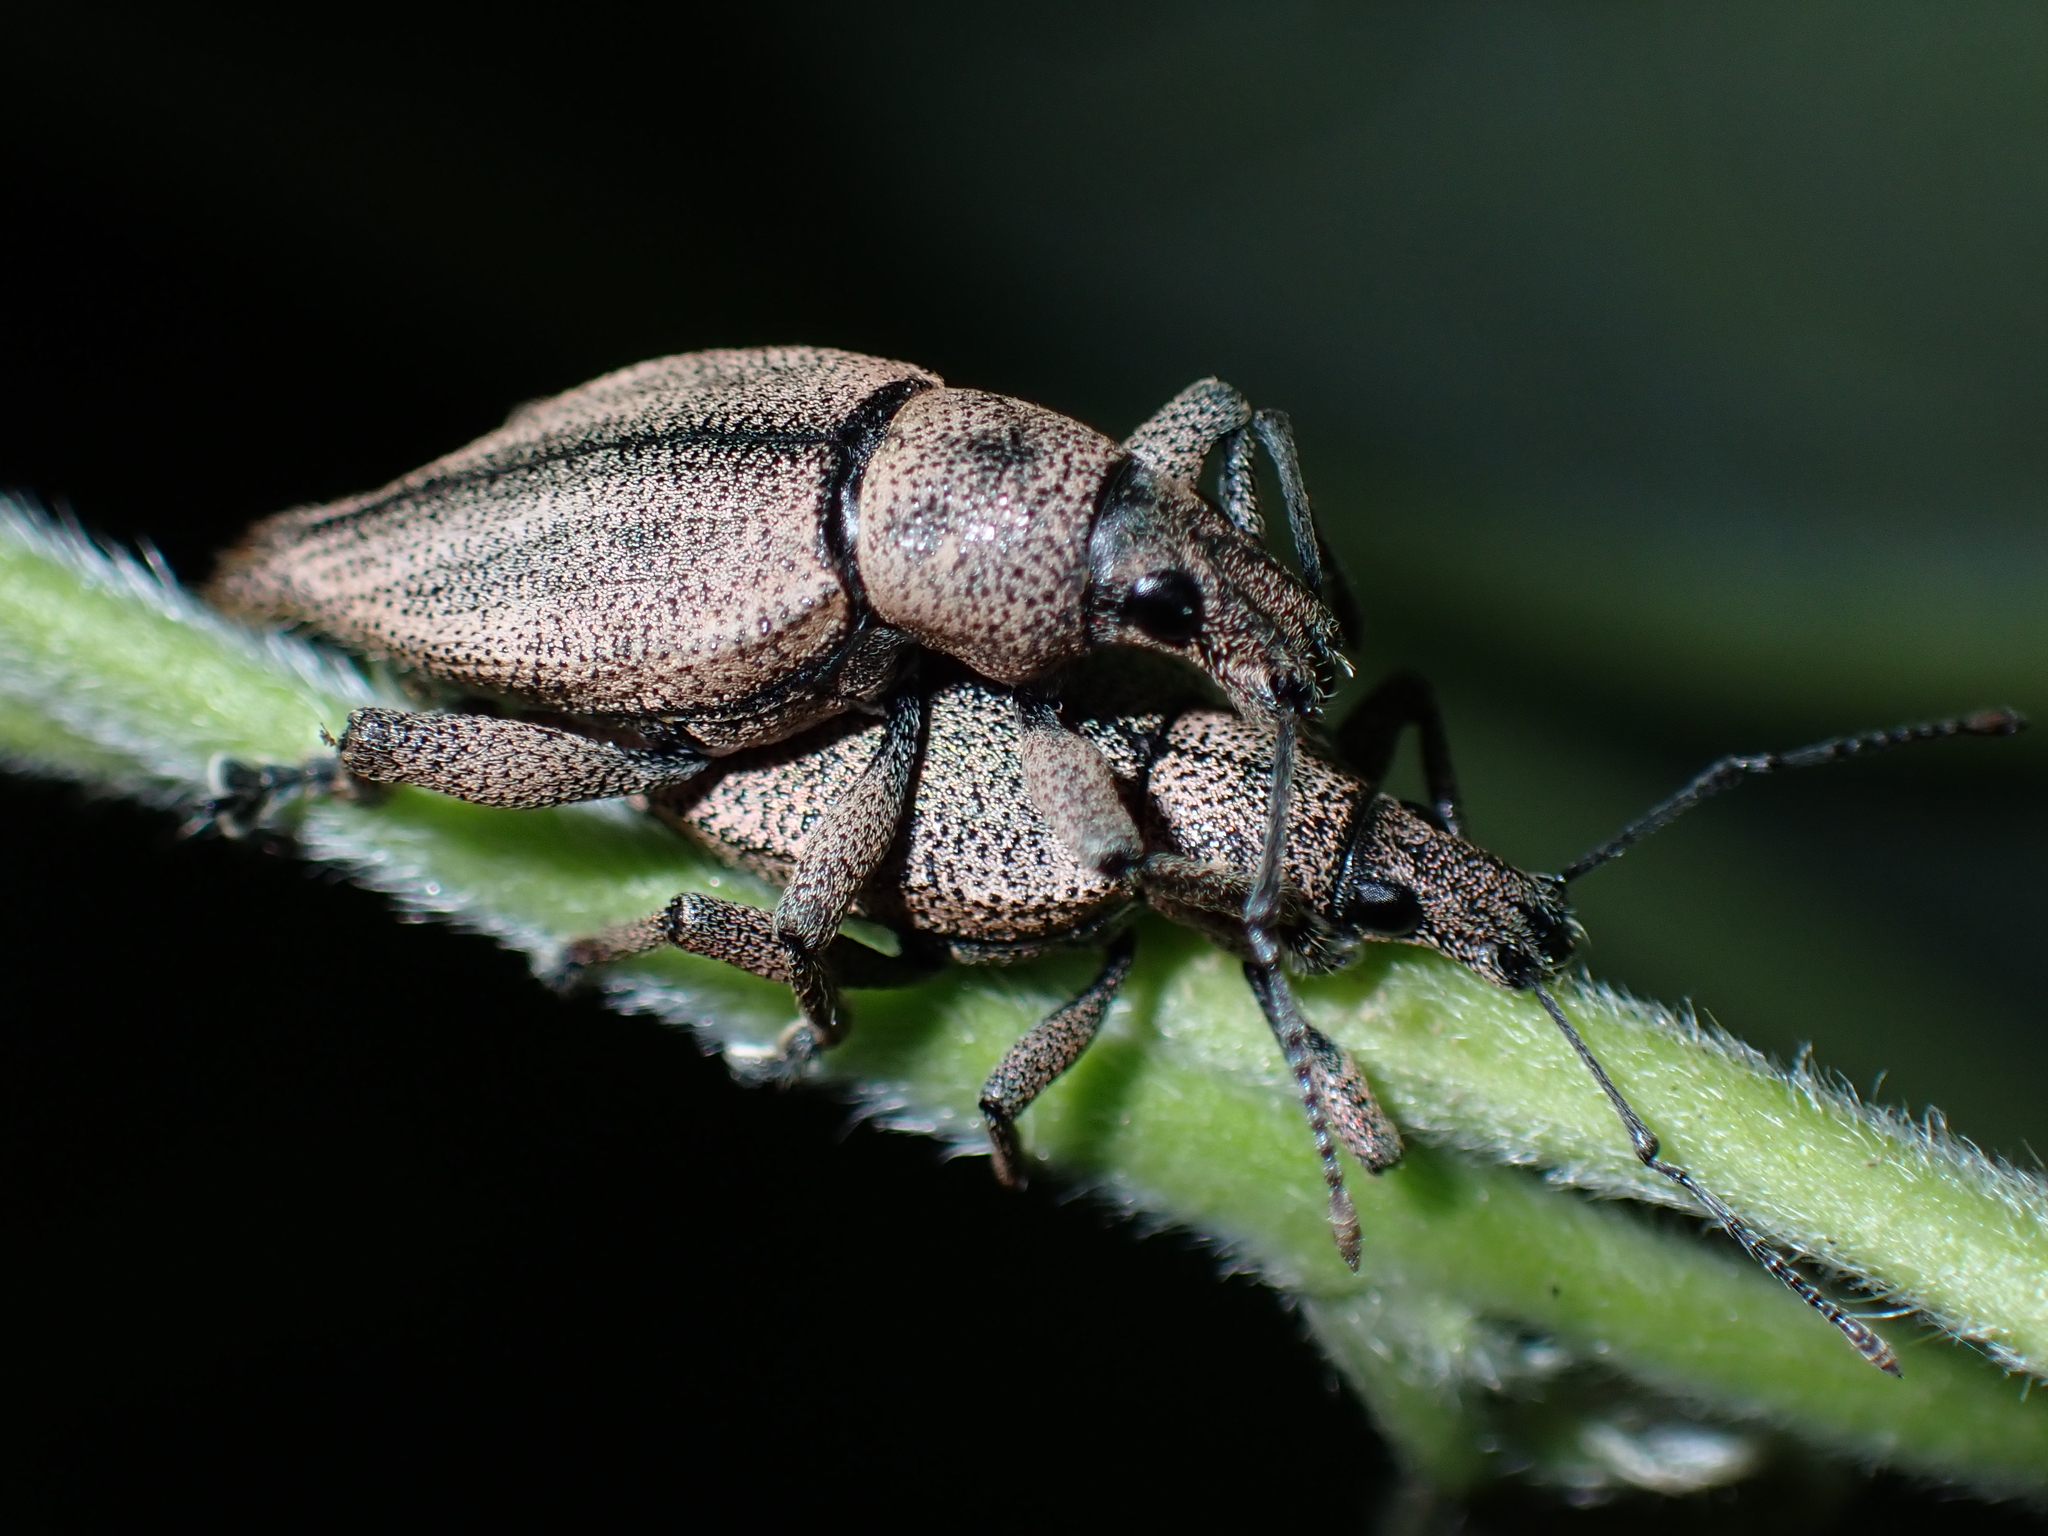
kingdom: Animalia
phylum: Arthropoda
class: Insecta
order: Coleoptera
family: Curculionidae
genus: Elytrurus
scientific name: Elytrurus serrulatus
